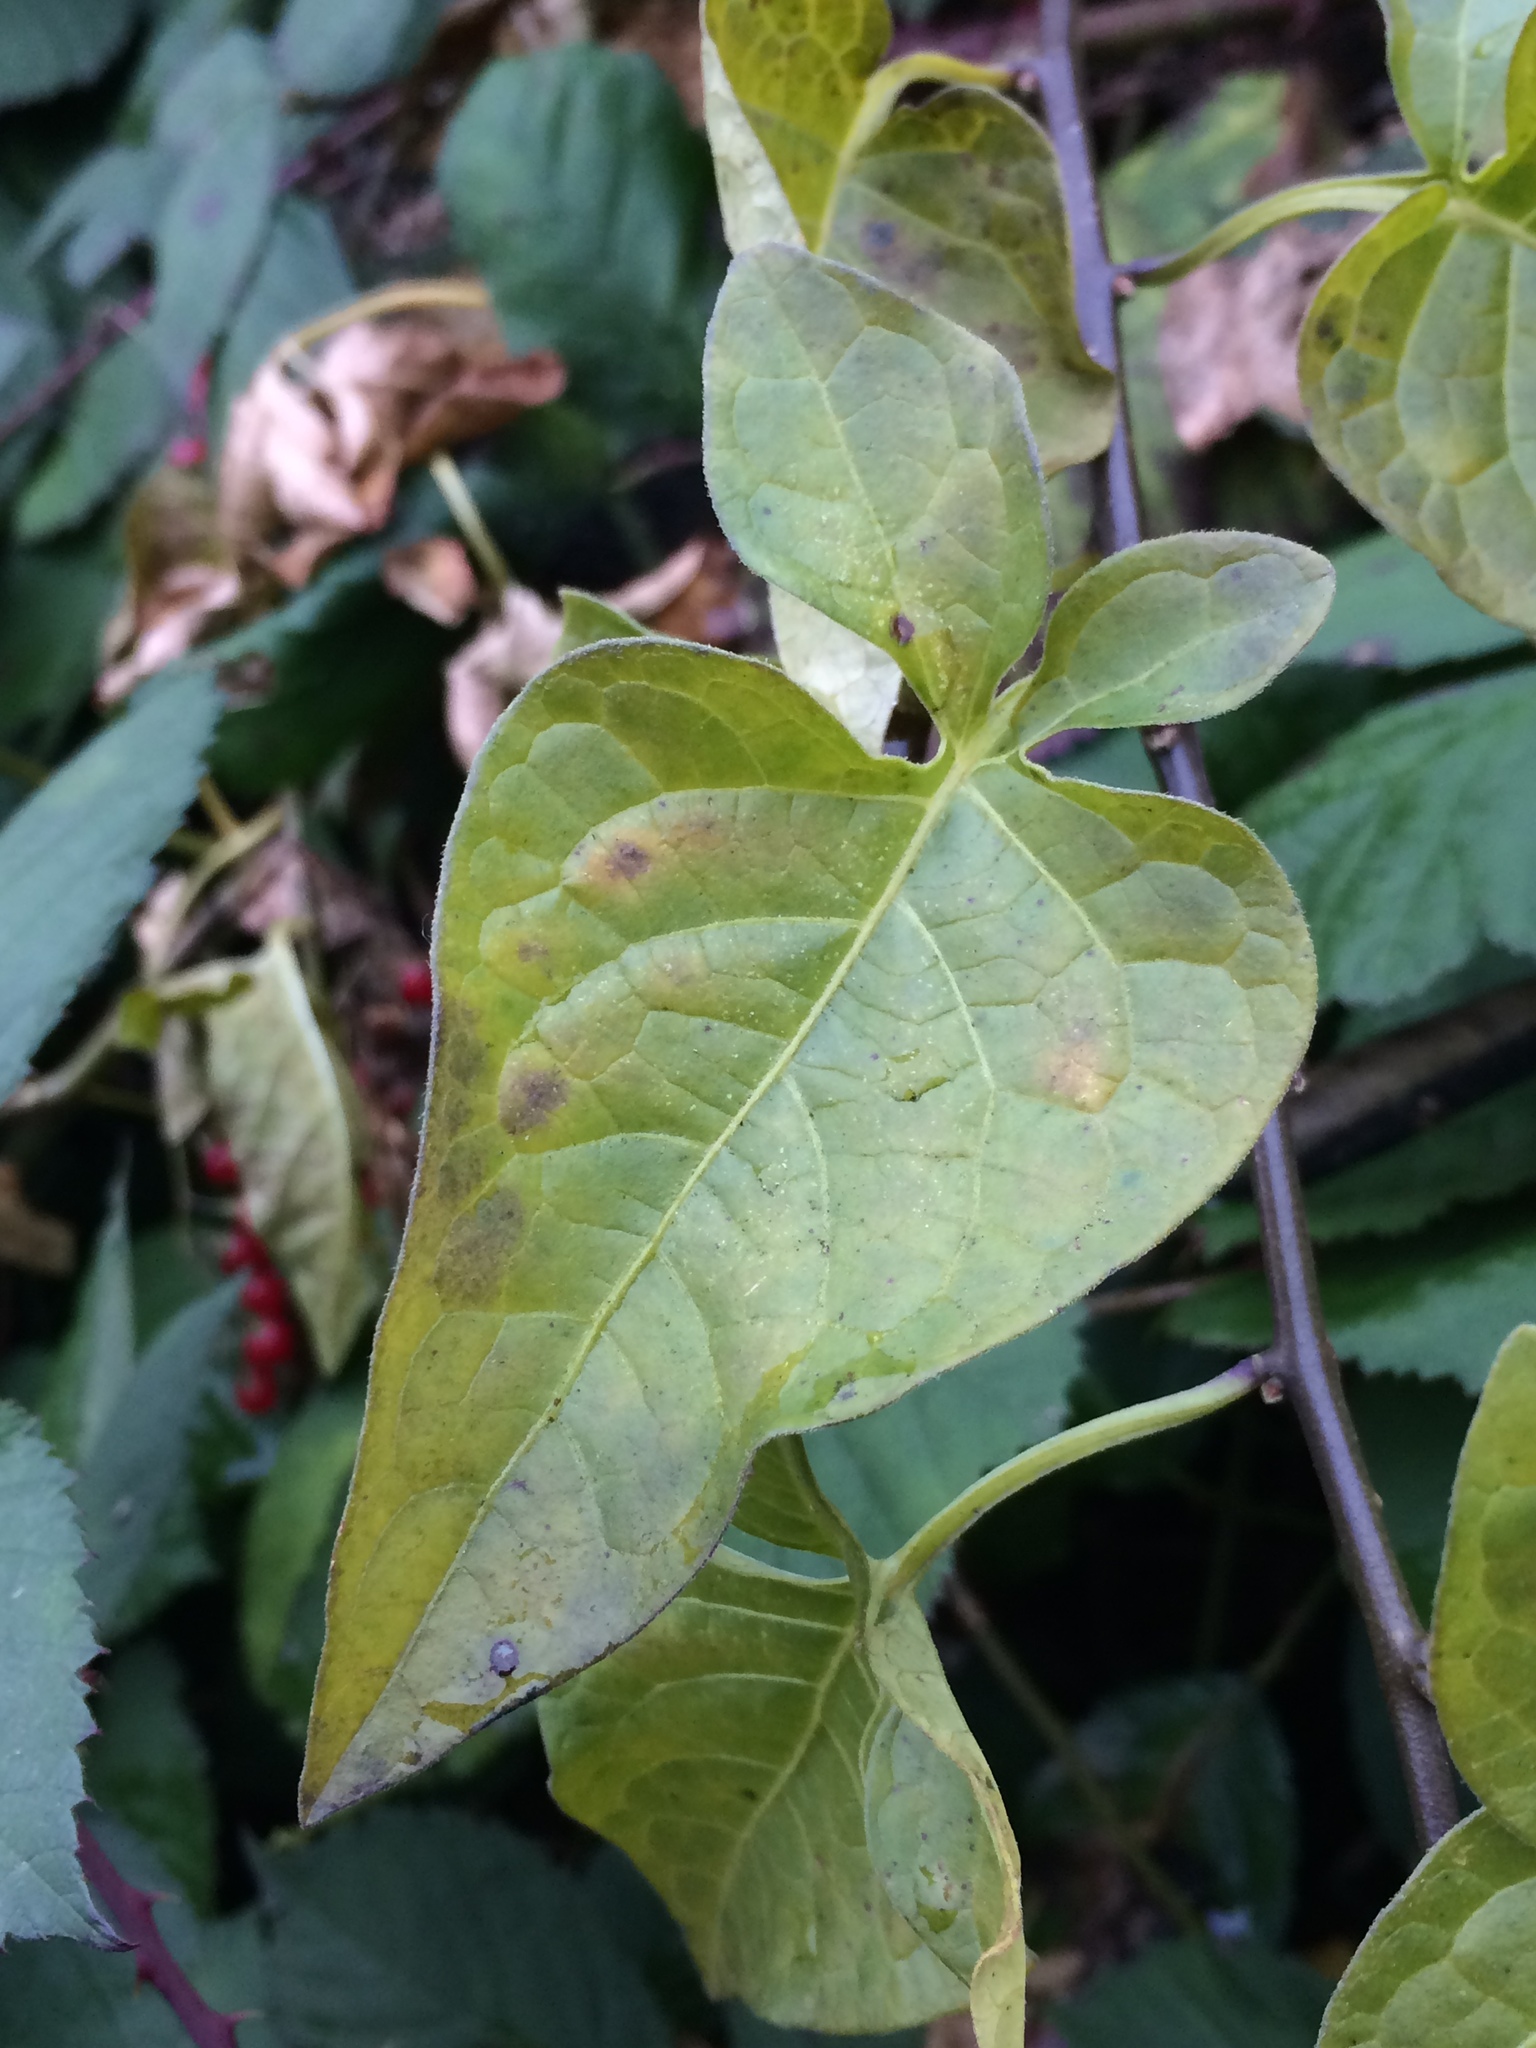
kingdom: Plantae
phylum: Tracheophyta
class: Magnoliopsida
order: Solanales
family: Solanaceae
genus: Solanum
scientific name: Solanum dulcamara
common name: Climbing nightshade
